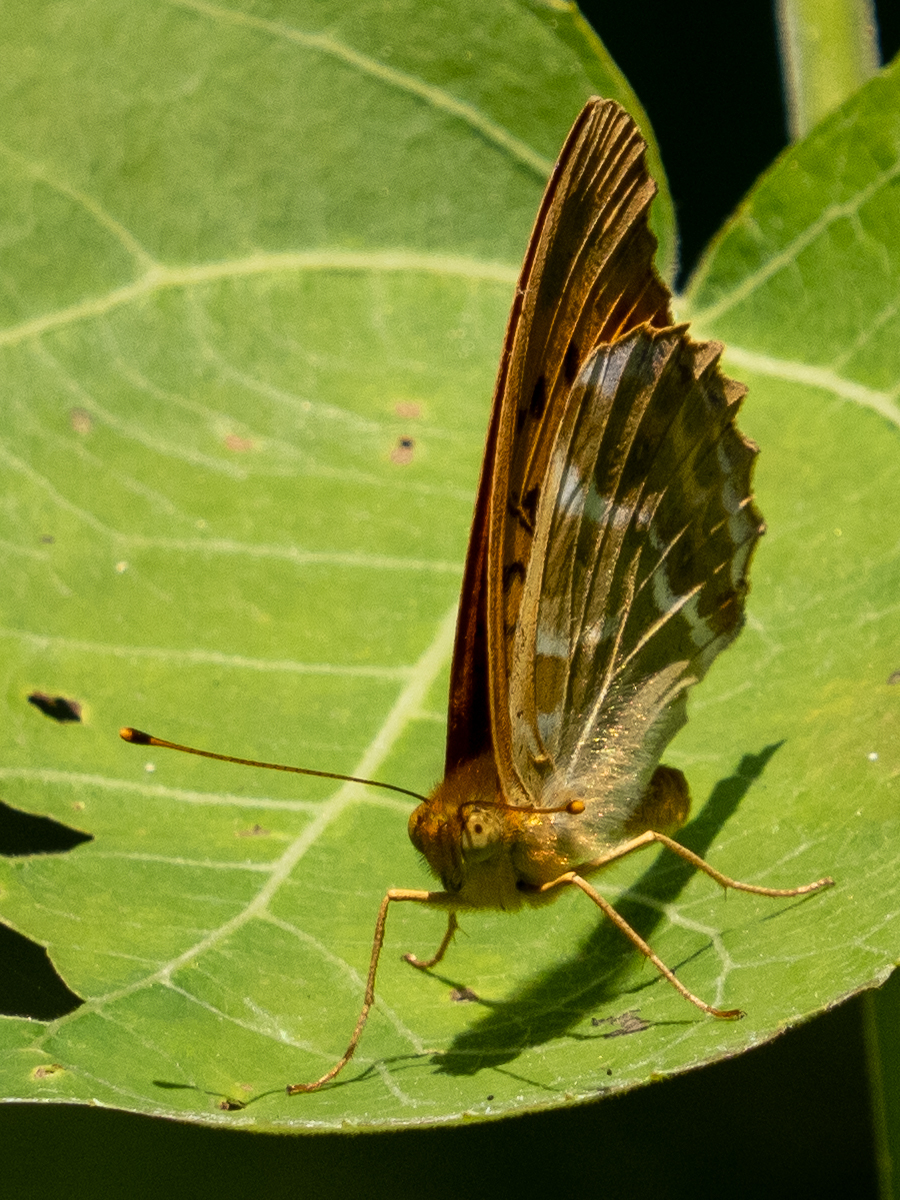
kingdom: Animalia
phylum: Arthropoda
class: Insecta
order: Lepidoptera
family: Nymphalidae
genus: Argynnis
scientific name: Argynnis paphia
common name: Silver-washed fritillary
